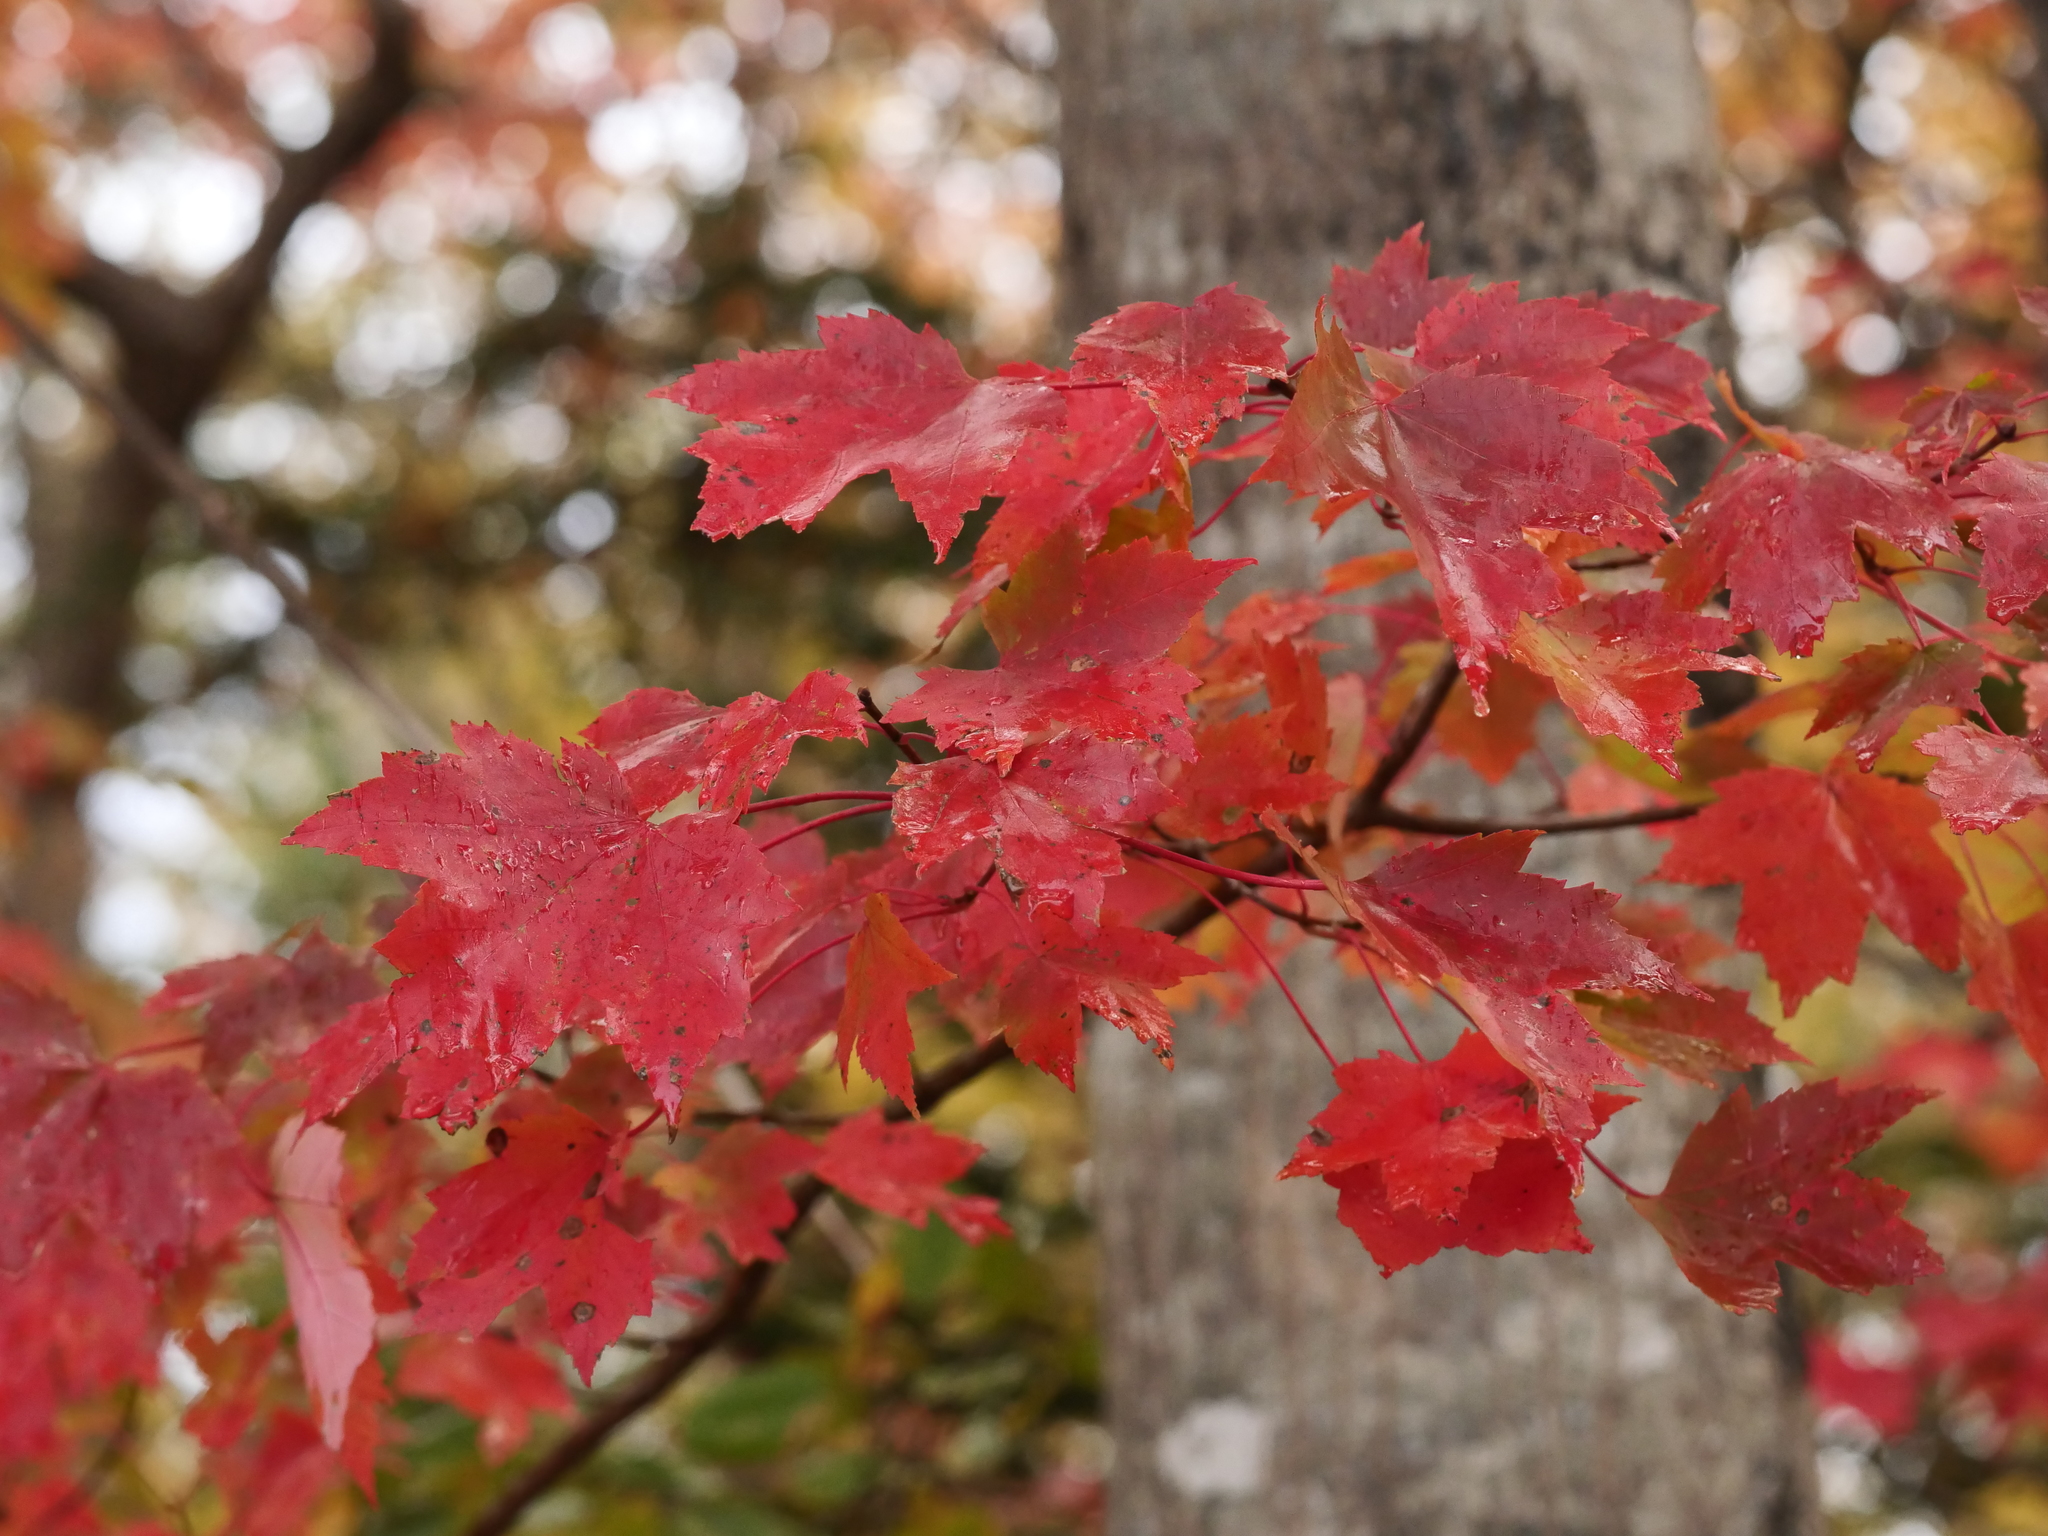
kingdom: Plantae
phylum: Tracheophyta
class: Magnoliopsida
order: Sapindales
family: Sapindaceae
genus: Acer
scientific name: Acer rubrum
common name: Red maple
